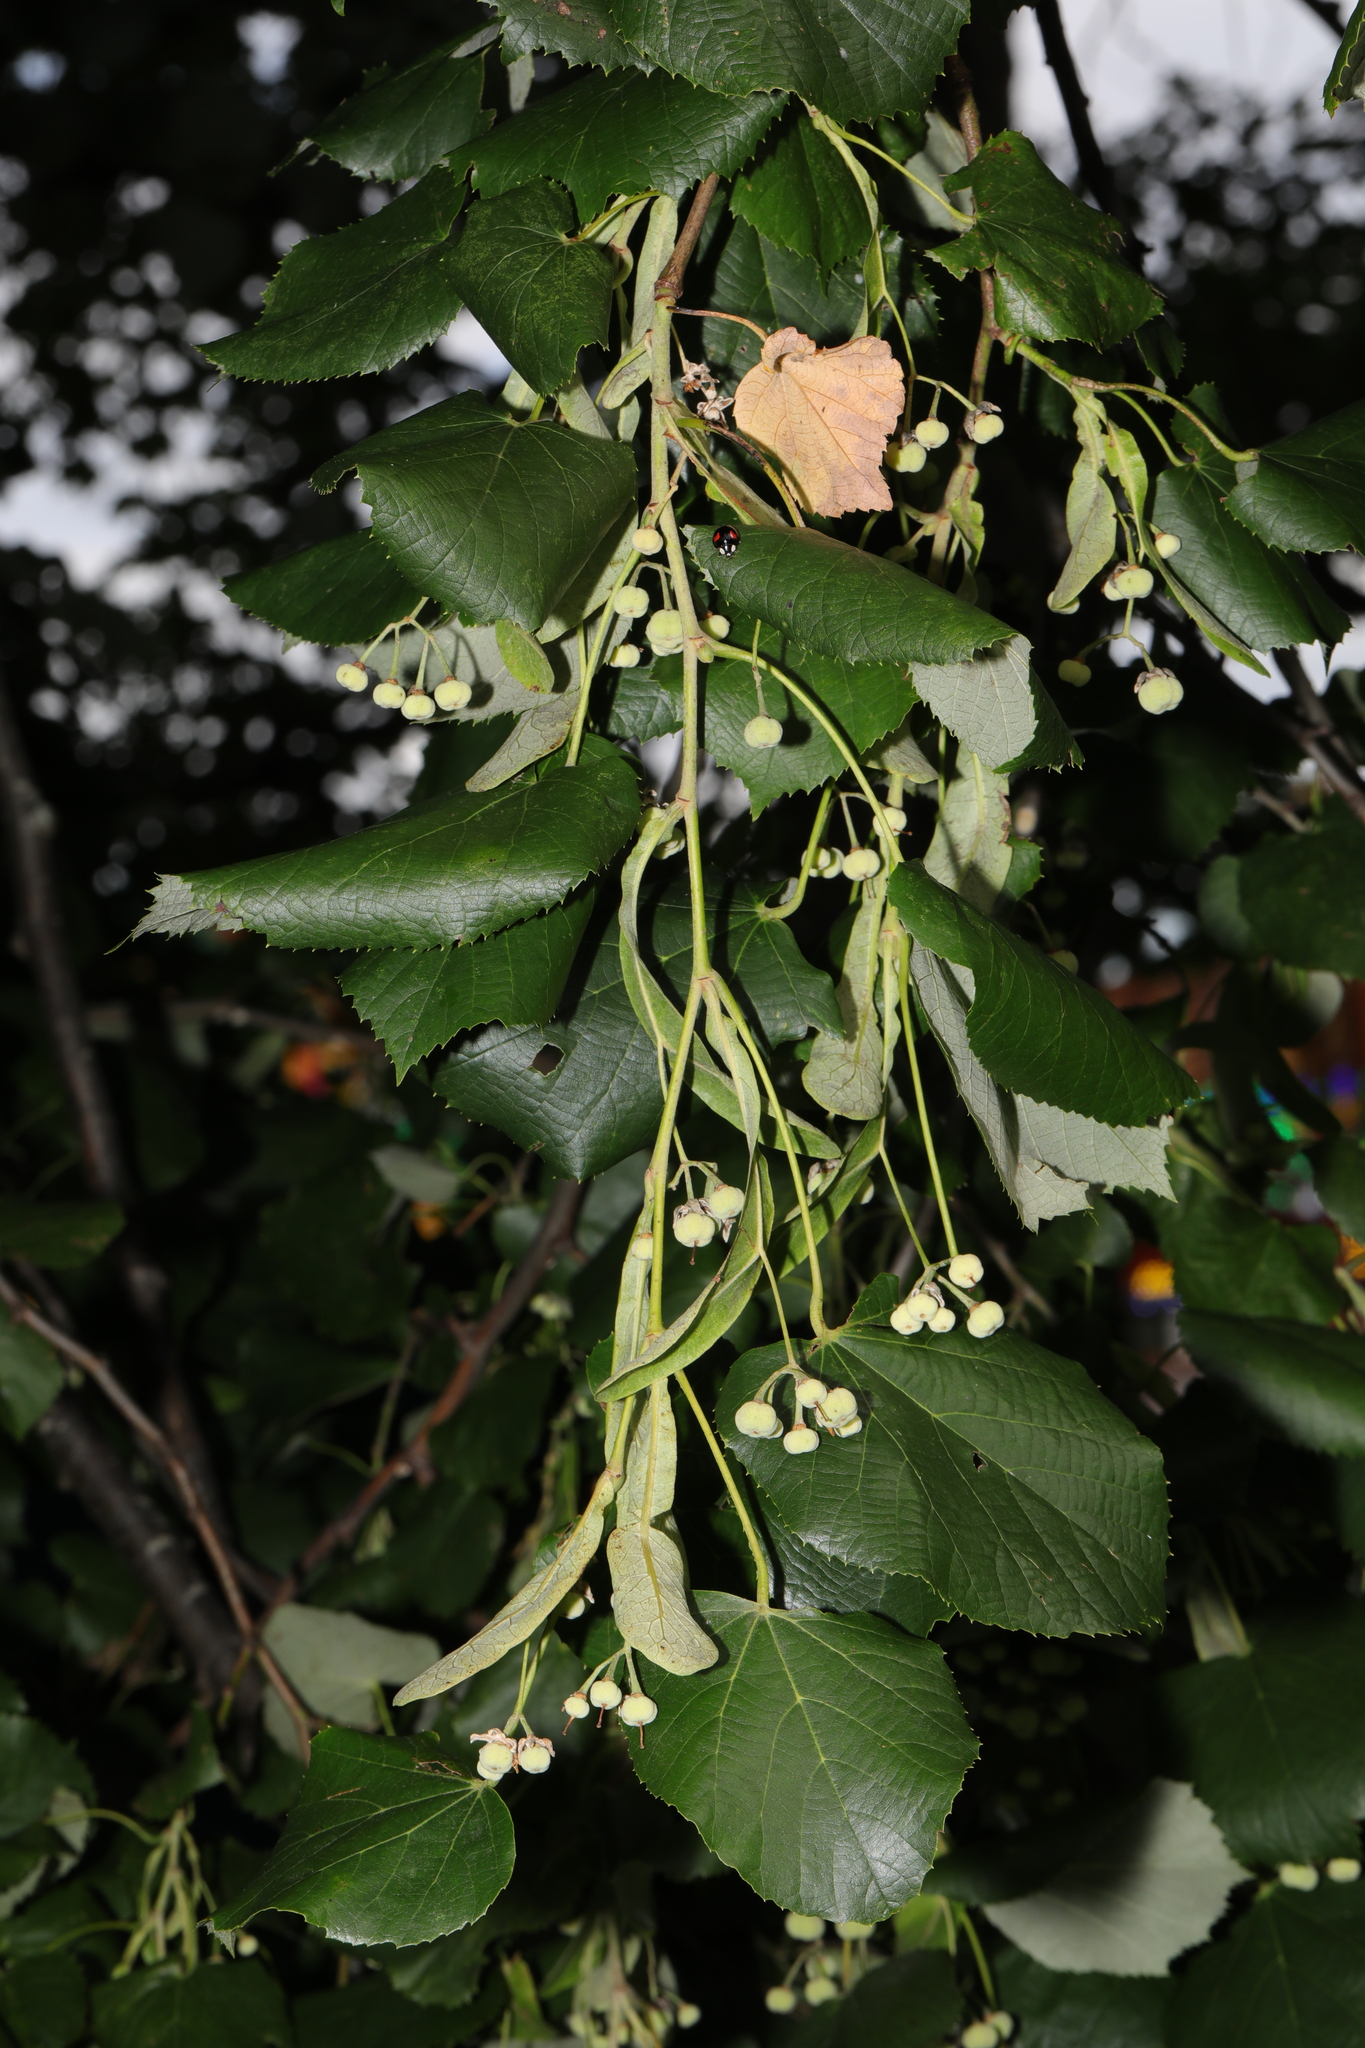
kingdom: Plantae
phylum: Tracheophyta
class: Magnoliopsida
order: Malvales
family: Malvaceae
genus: Tilia
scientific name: Tilia tomentosa
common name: Silver lime
